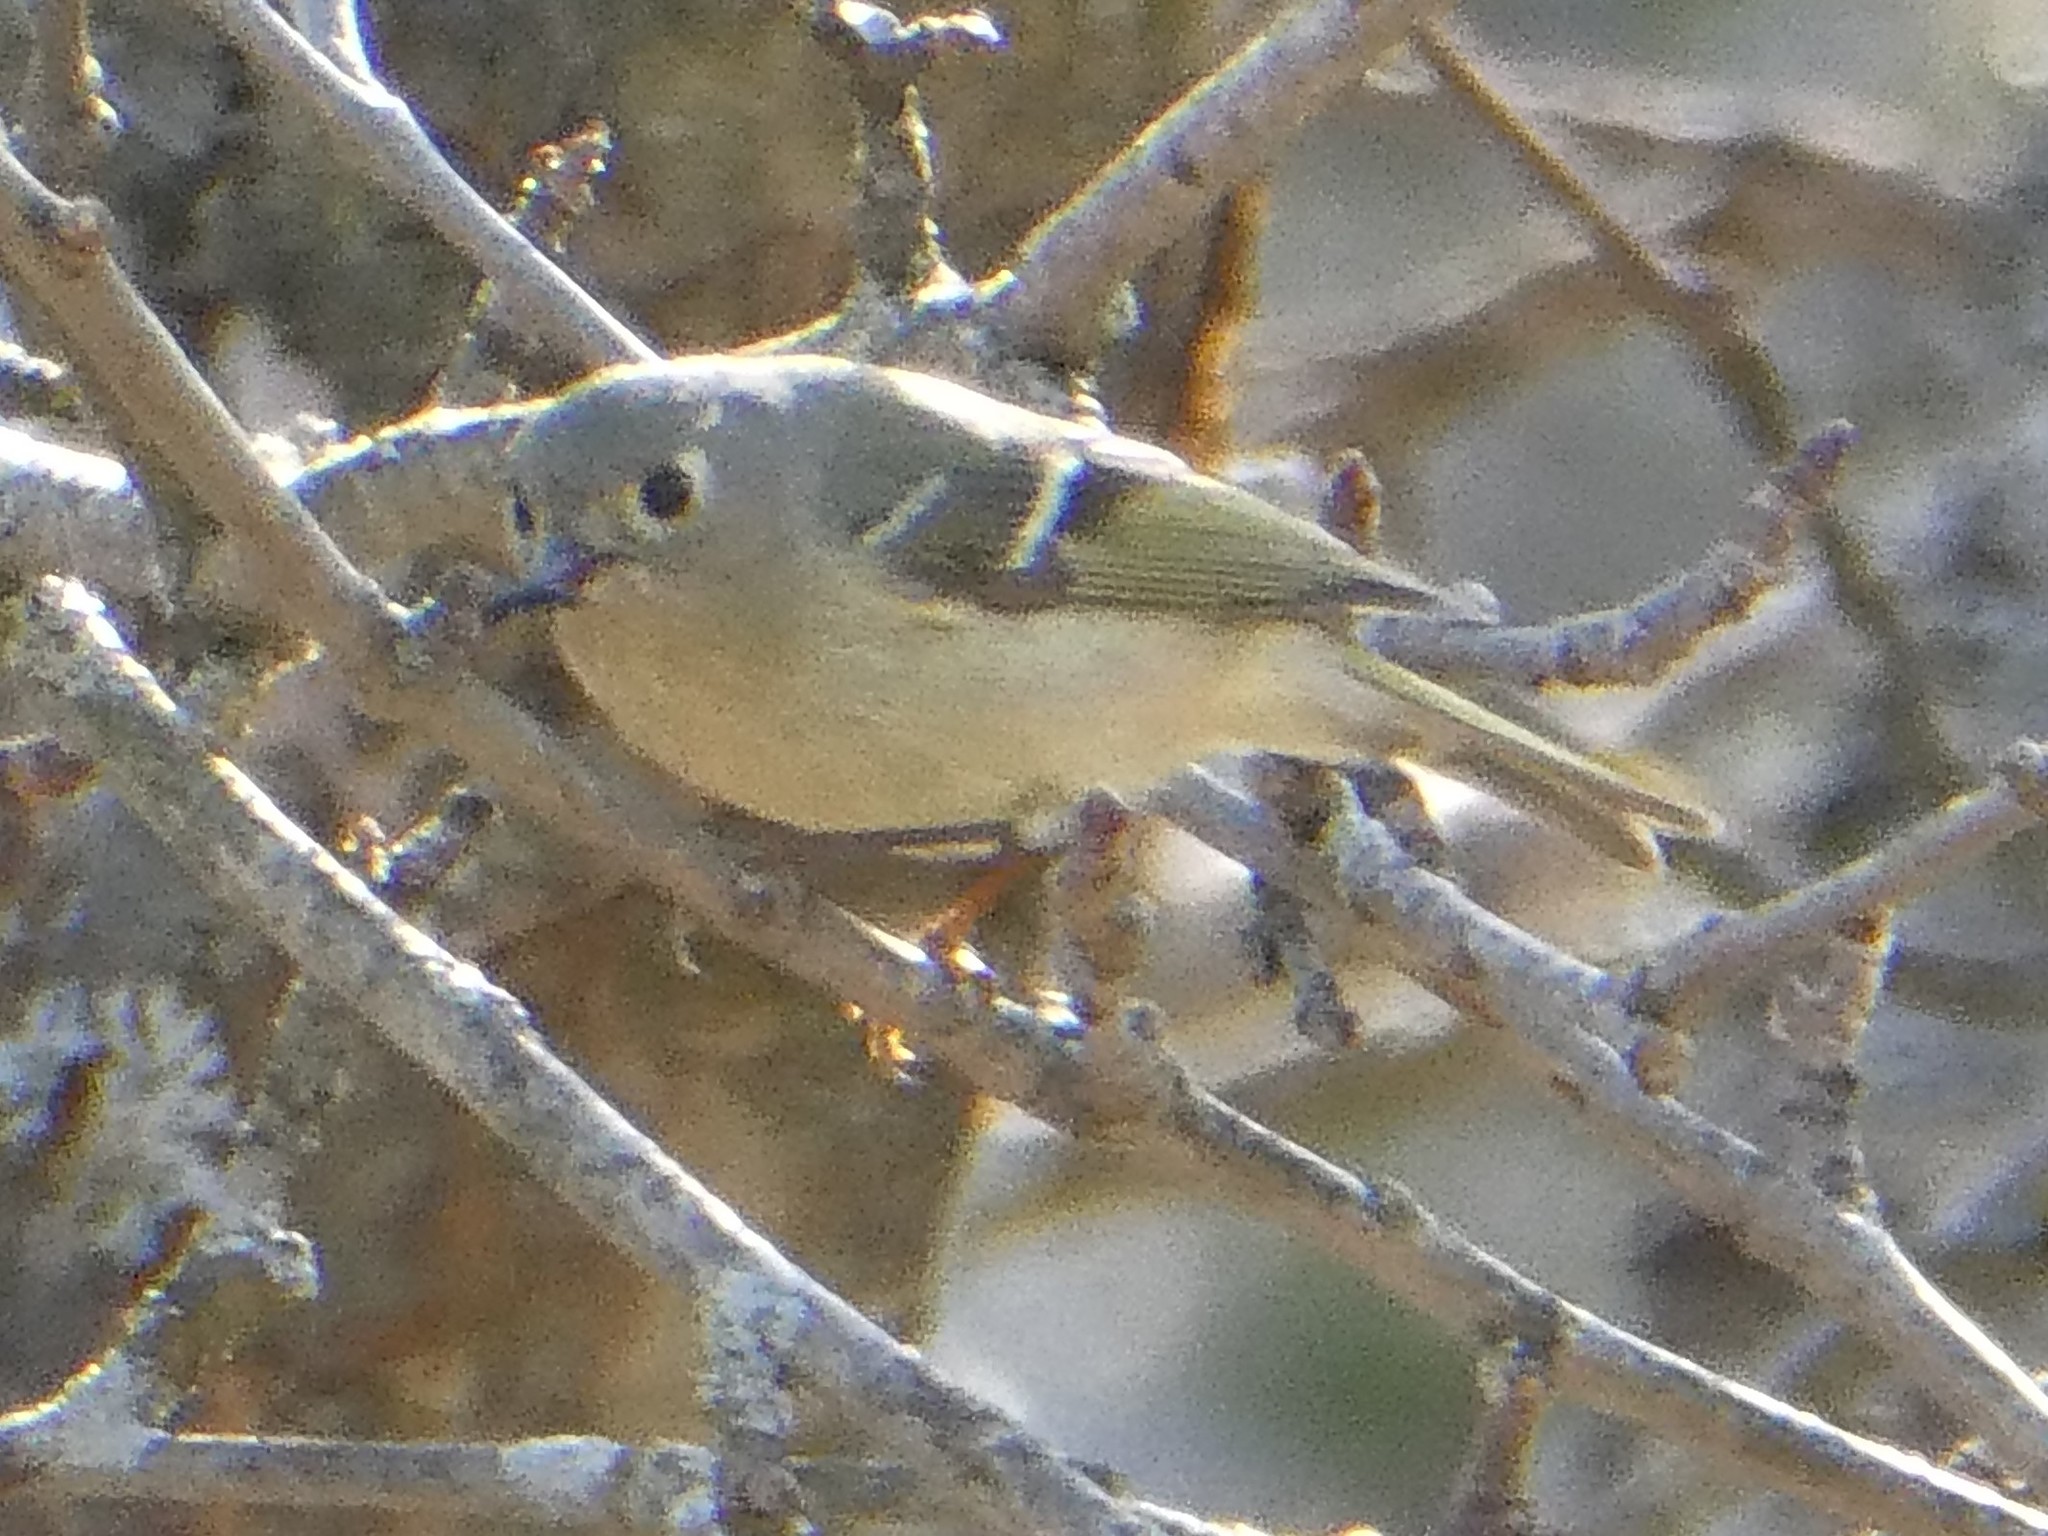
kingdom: Animalia
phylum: Chordata
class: Aves
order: Passeriformes
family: Regulidae
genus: Regulus
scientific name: Regulus calendula
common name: Ruby-crowned kinglet
